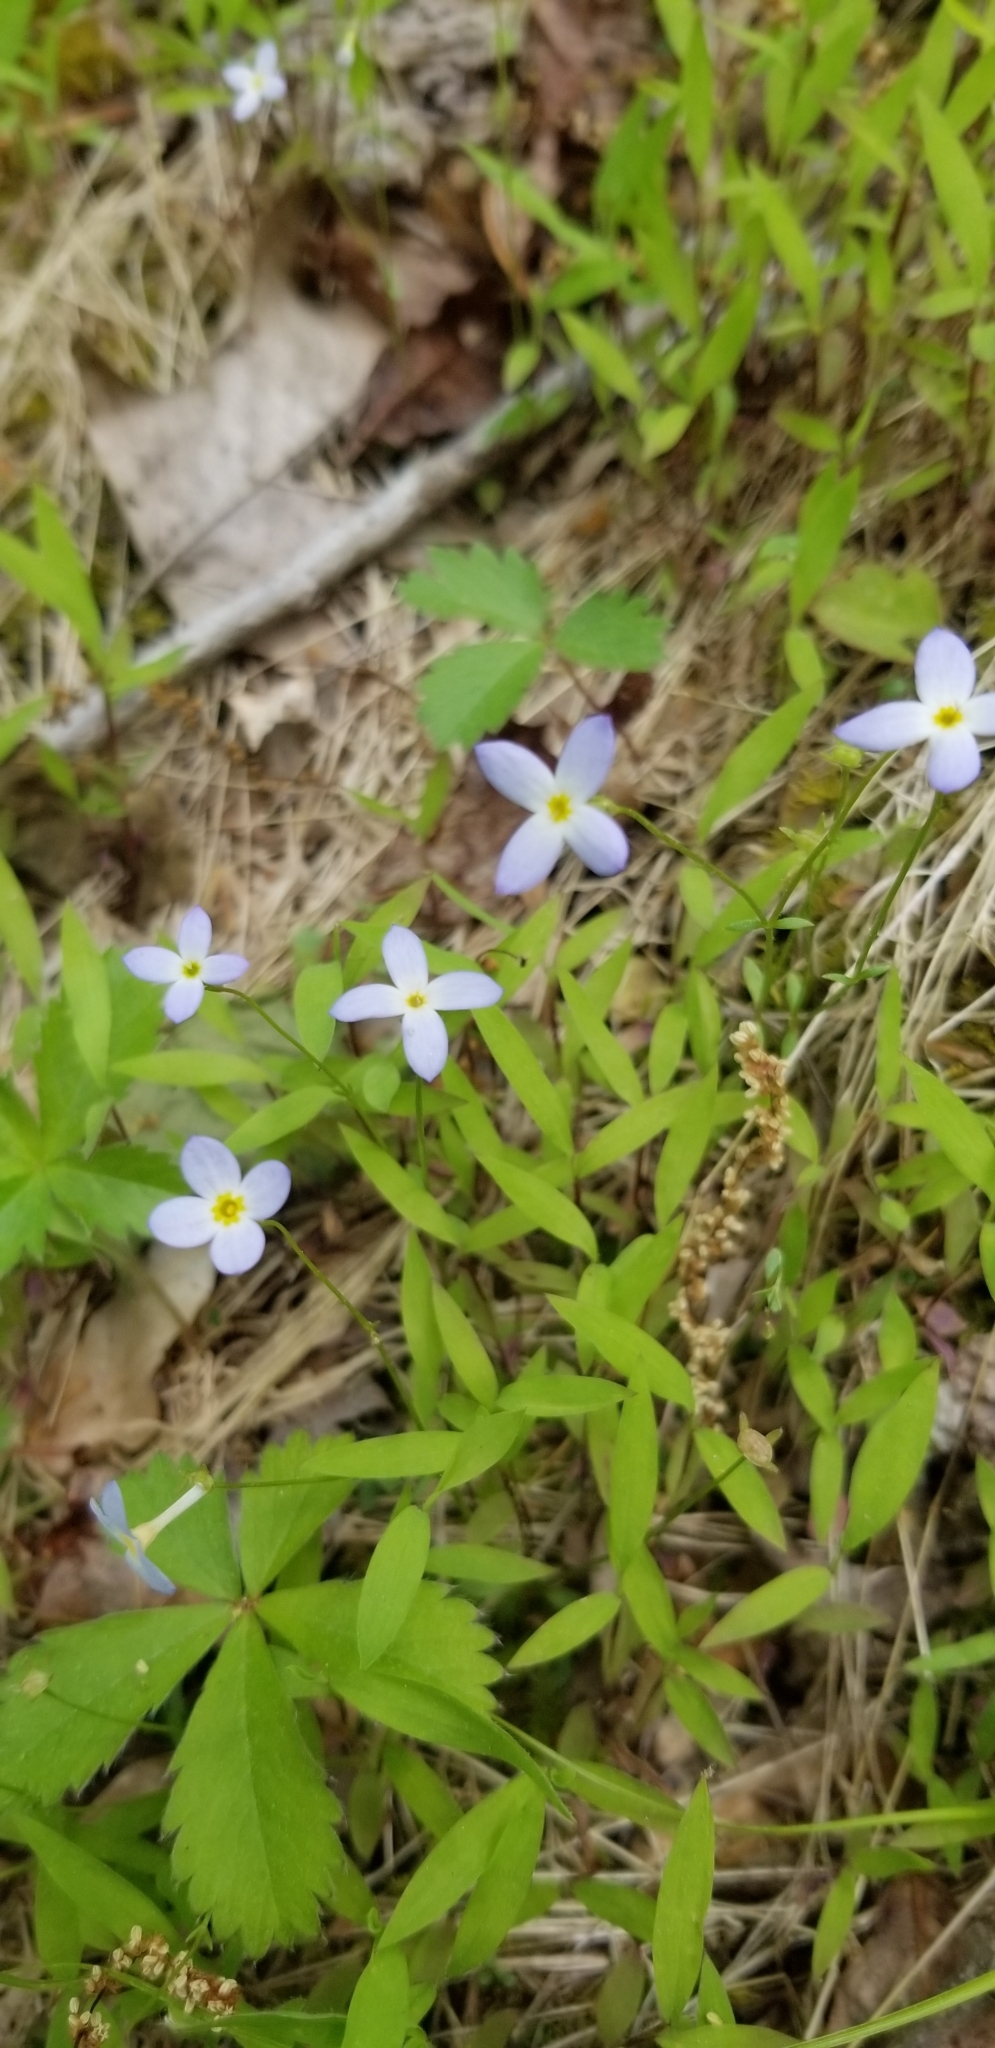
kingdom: Plantae
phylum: Tracheophyta
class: Magnoliopsida
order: Gentianales
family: Rubiaceae
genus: Houstonia
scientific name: Houstonia caerulea
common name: Bluets
